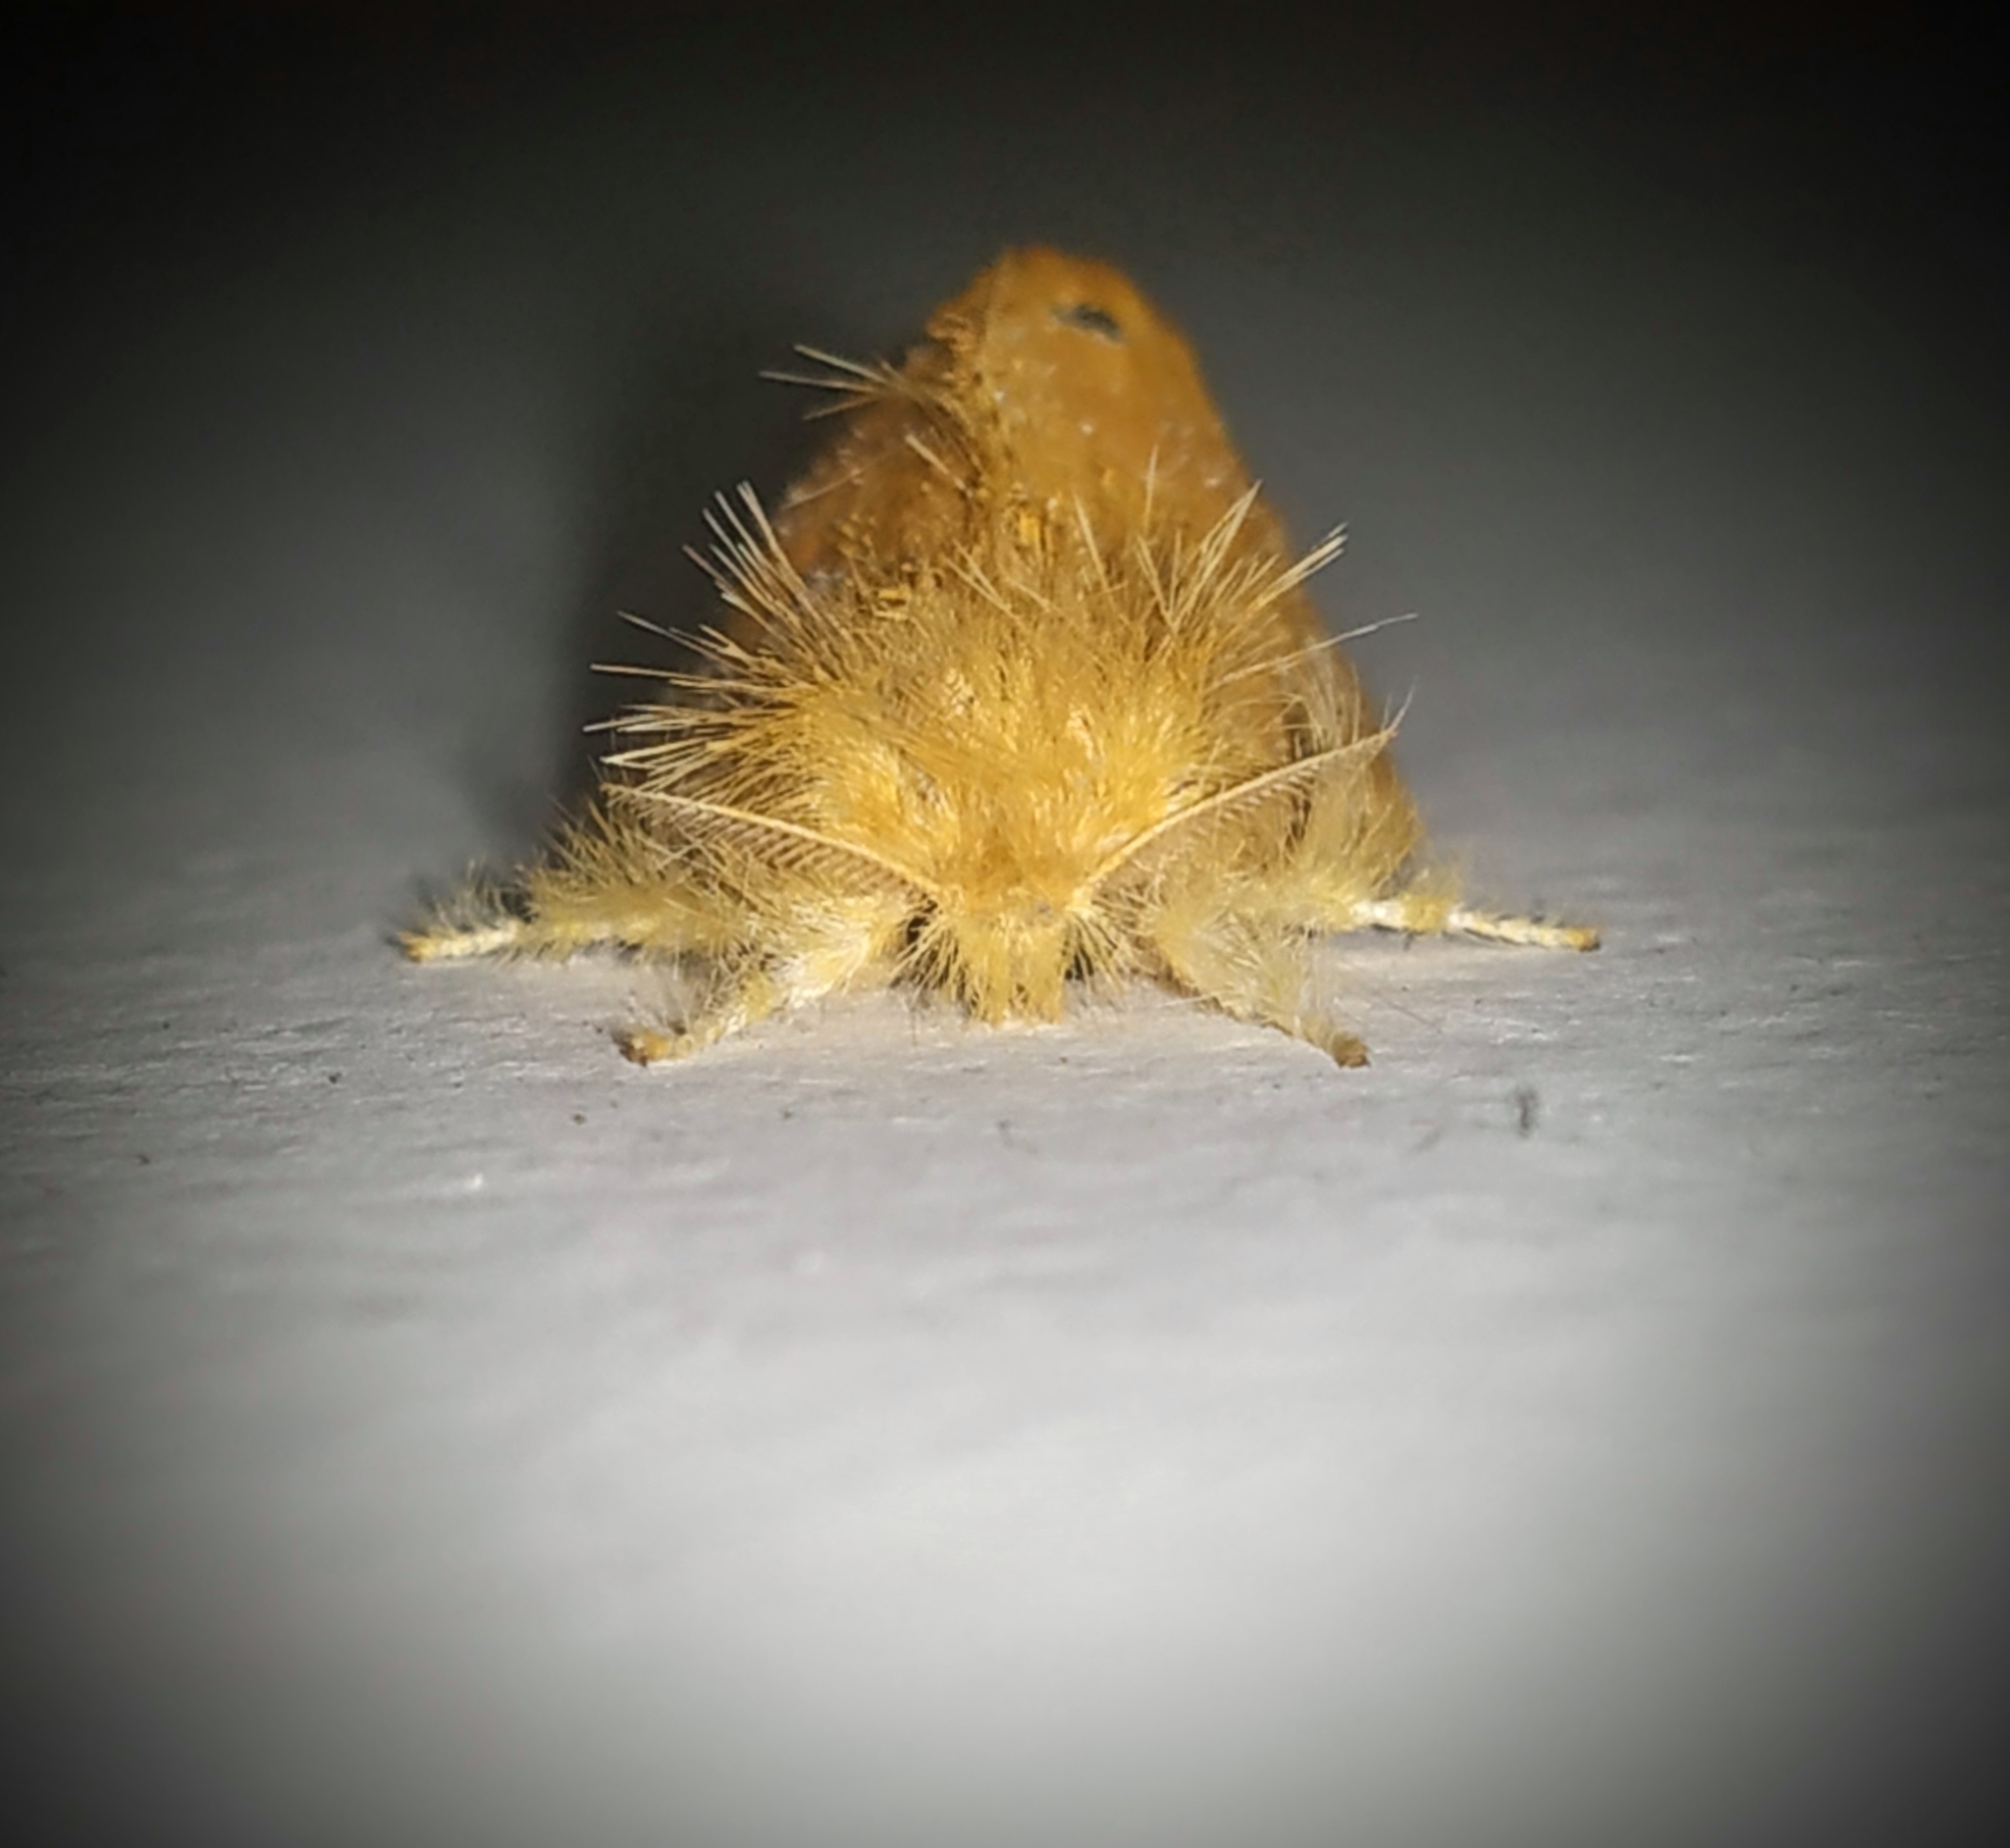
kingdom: Animalia
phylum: Arthropoda
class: Insecta
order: Lepidoptera
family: Erebidae
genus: Artaxa
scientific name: Artaxa guttata
